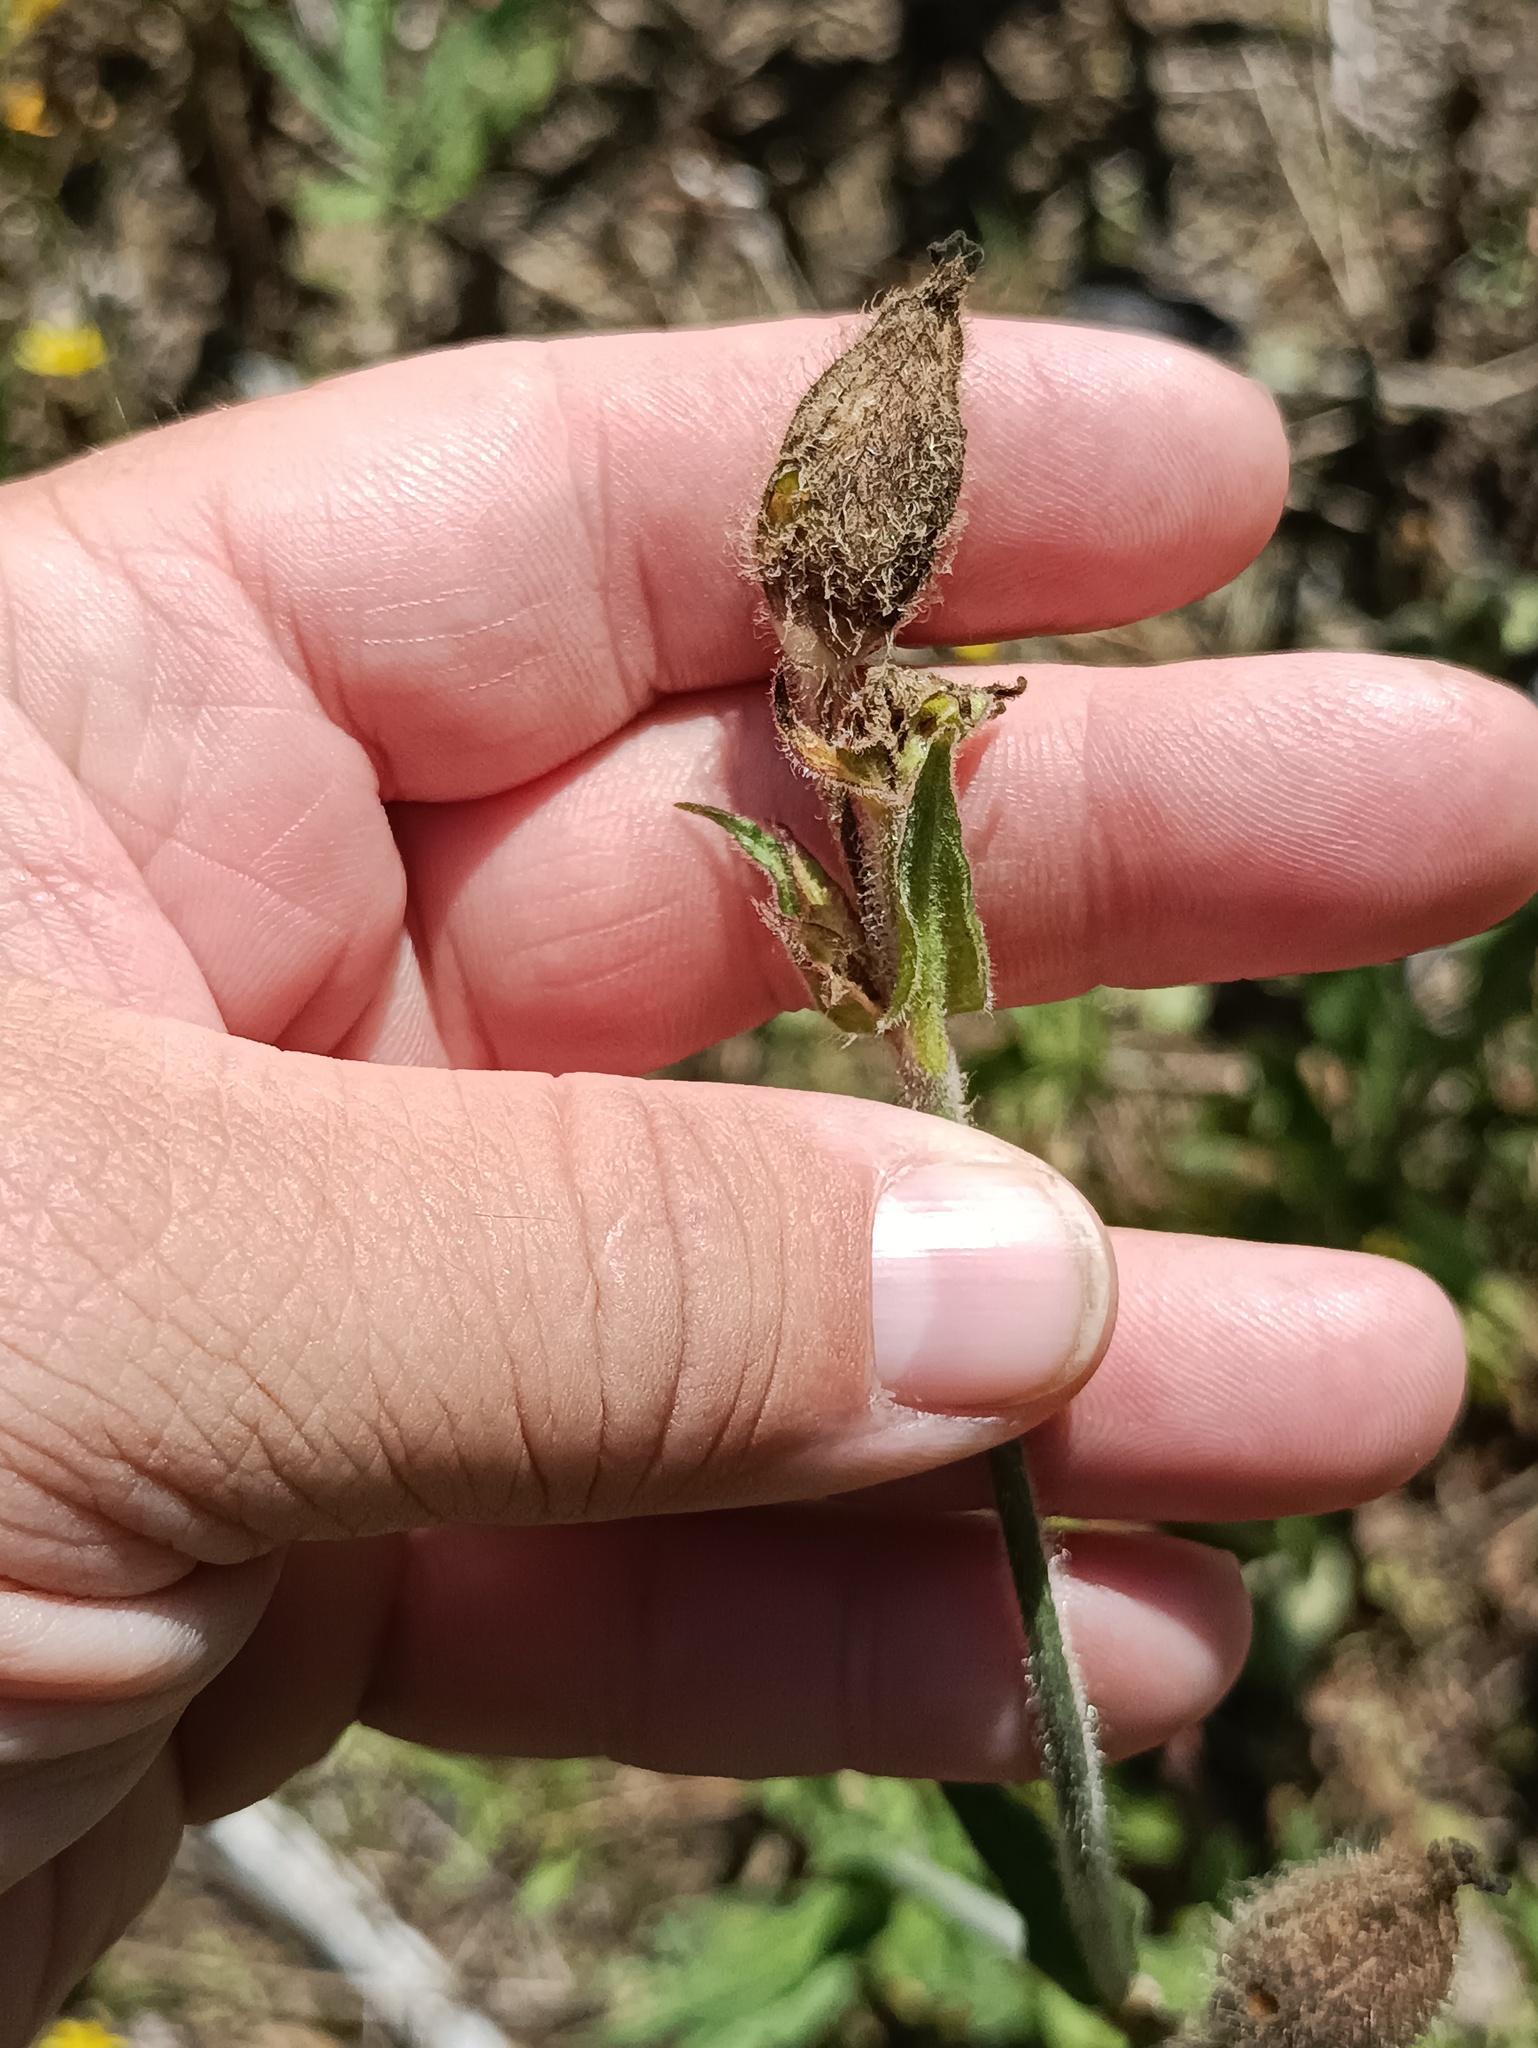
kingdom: Plantae
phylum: Tracheophyta
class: Magnoliopsida
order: Caryophyllales
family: Caryophyllaceae
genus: Silene
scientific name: Silene latifolia
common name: White campion
